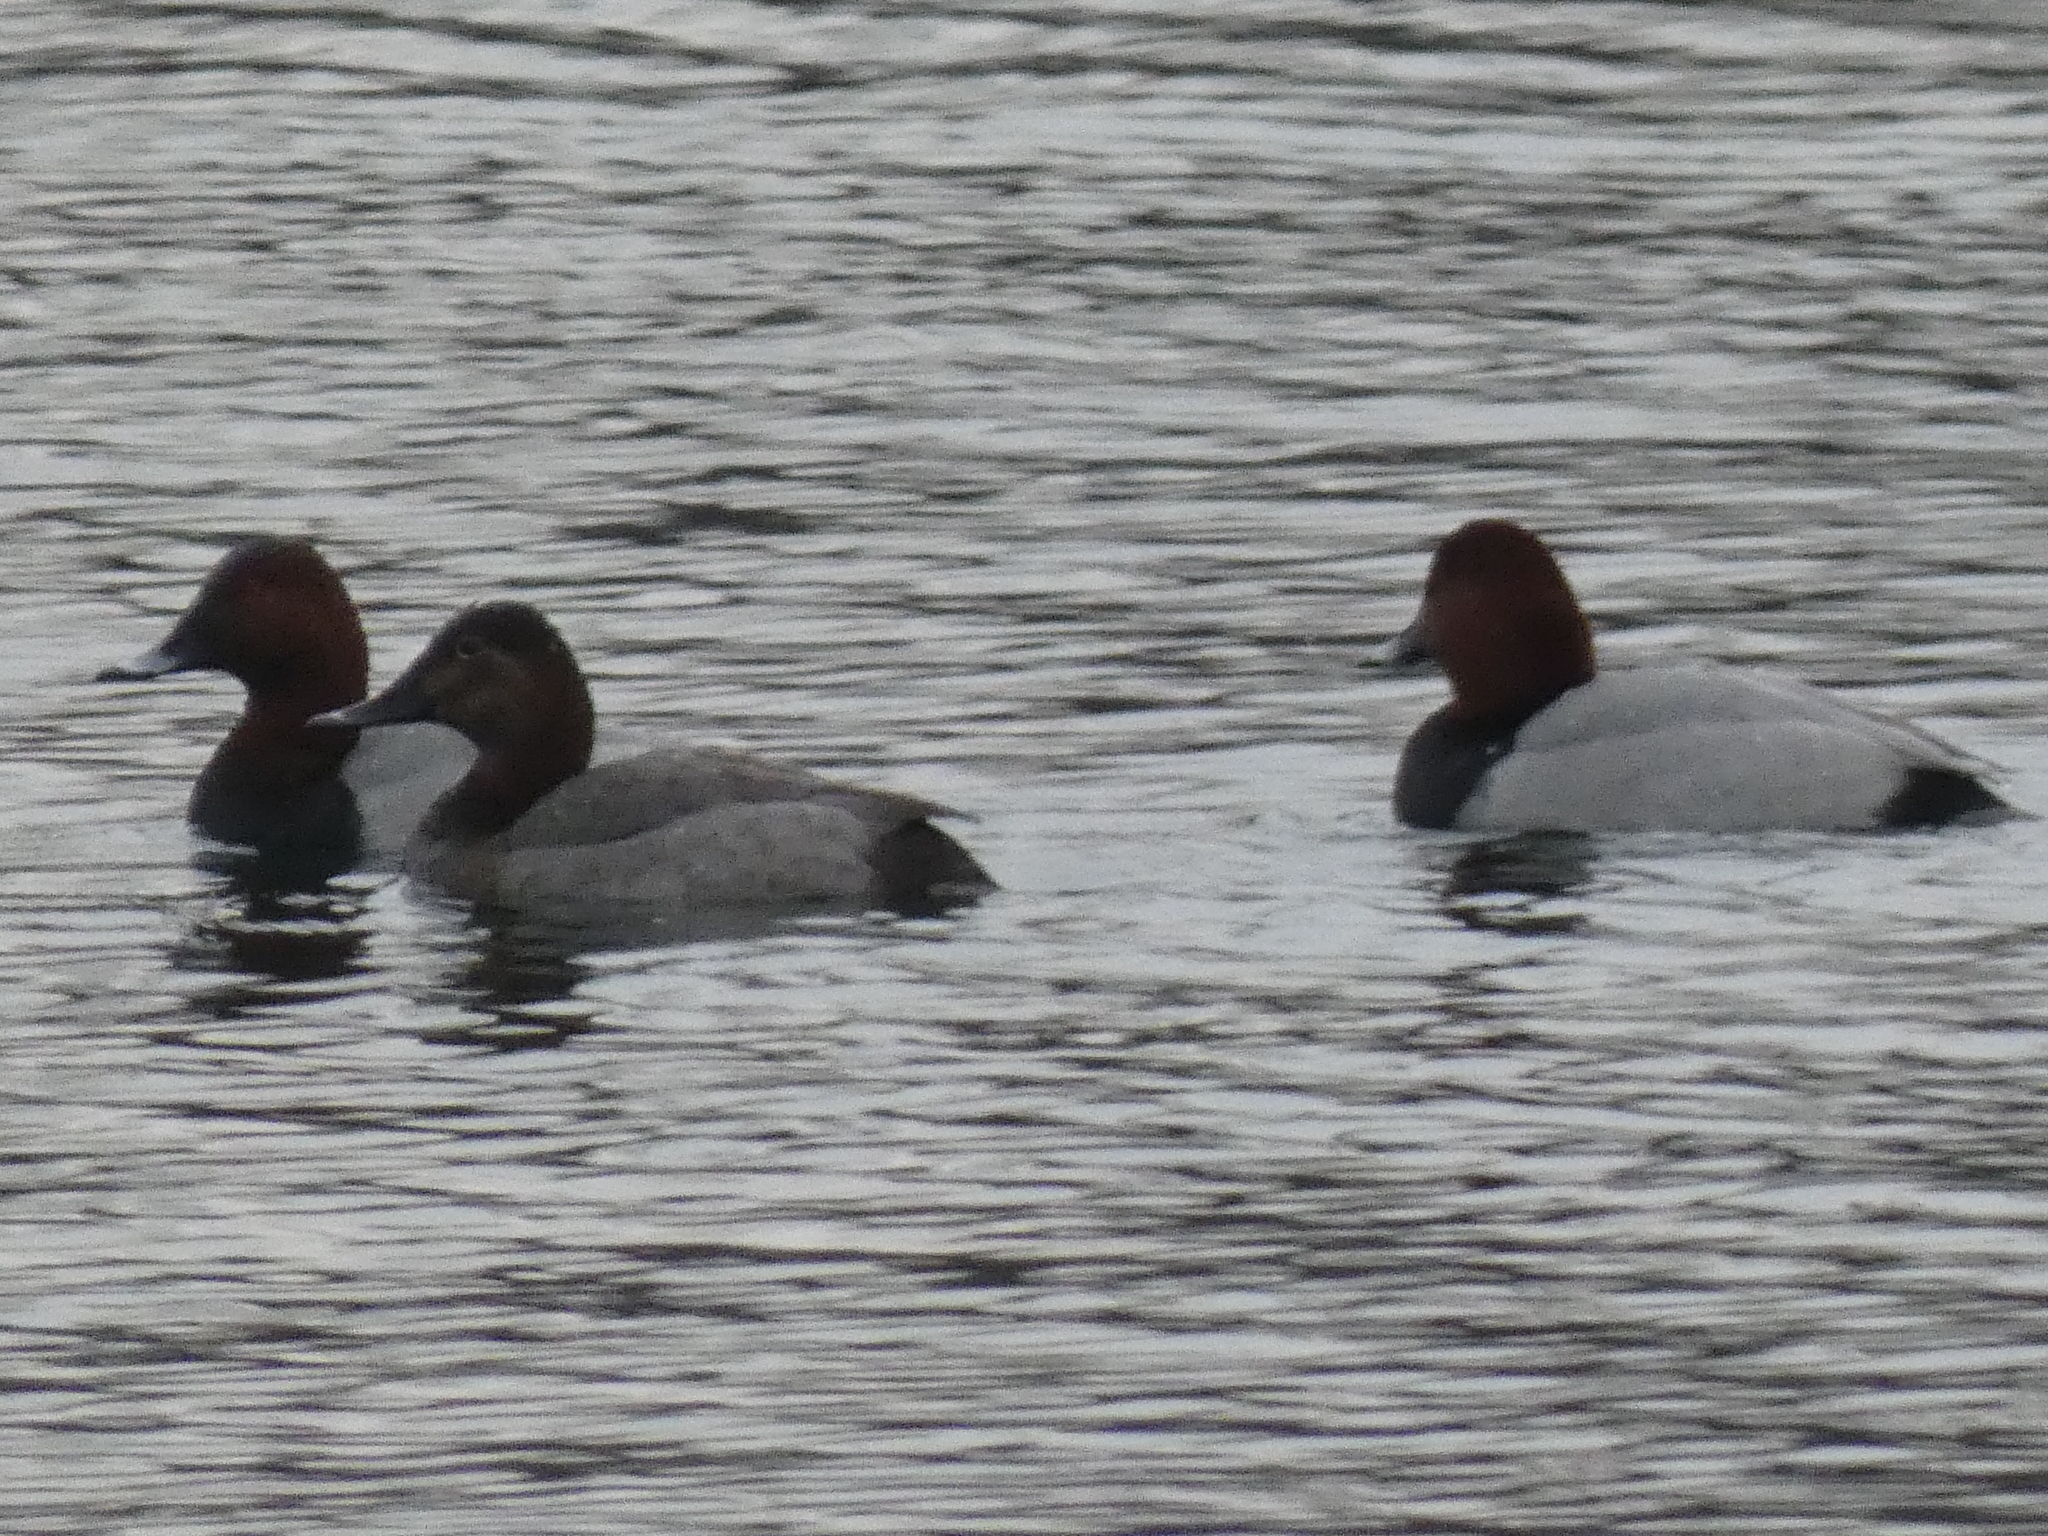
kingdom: Animalia
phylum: Chordata
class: Aves
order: Anseriformes
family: Anatidae
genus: Aythya
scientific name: Aythya ferina
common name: Common pochard
